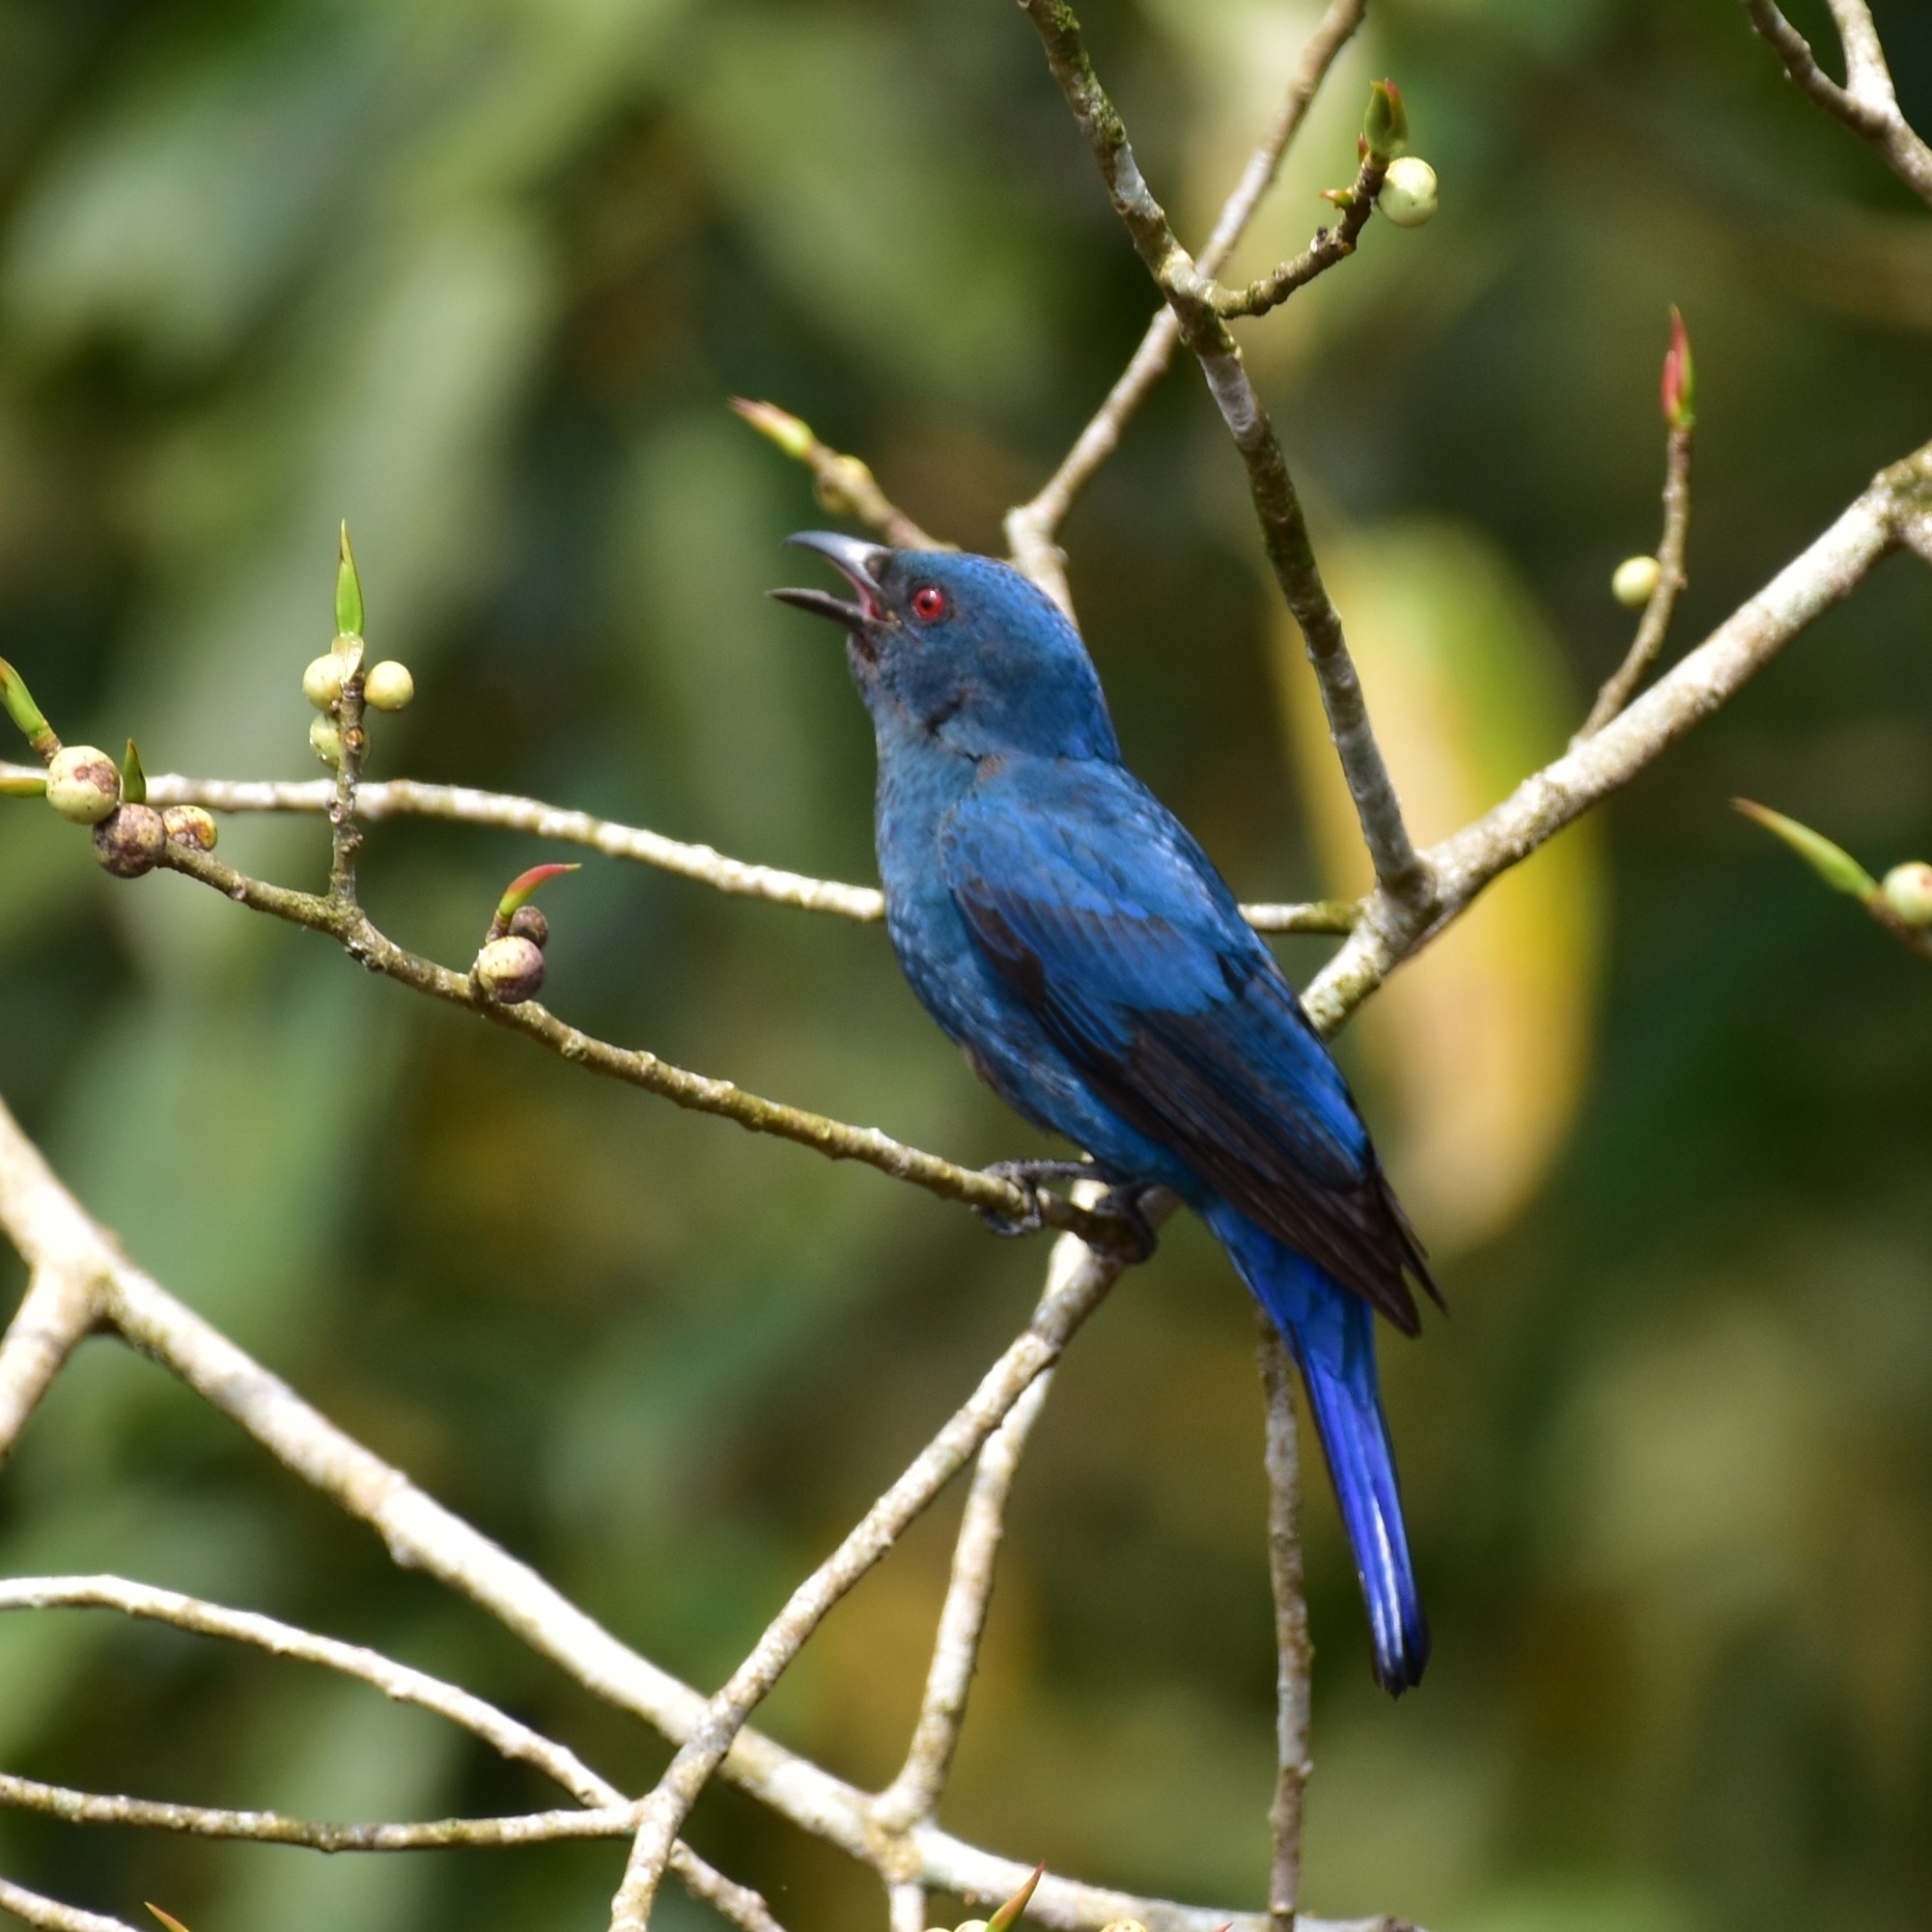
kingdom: Animalia
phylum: Chordata
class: Aves
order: Passeriformes
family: Irenidae
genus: Irena
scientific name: Irena puella
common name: Asian fairy-bluebird
